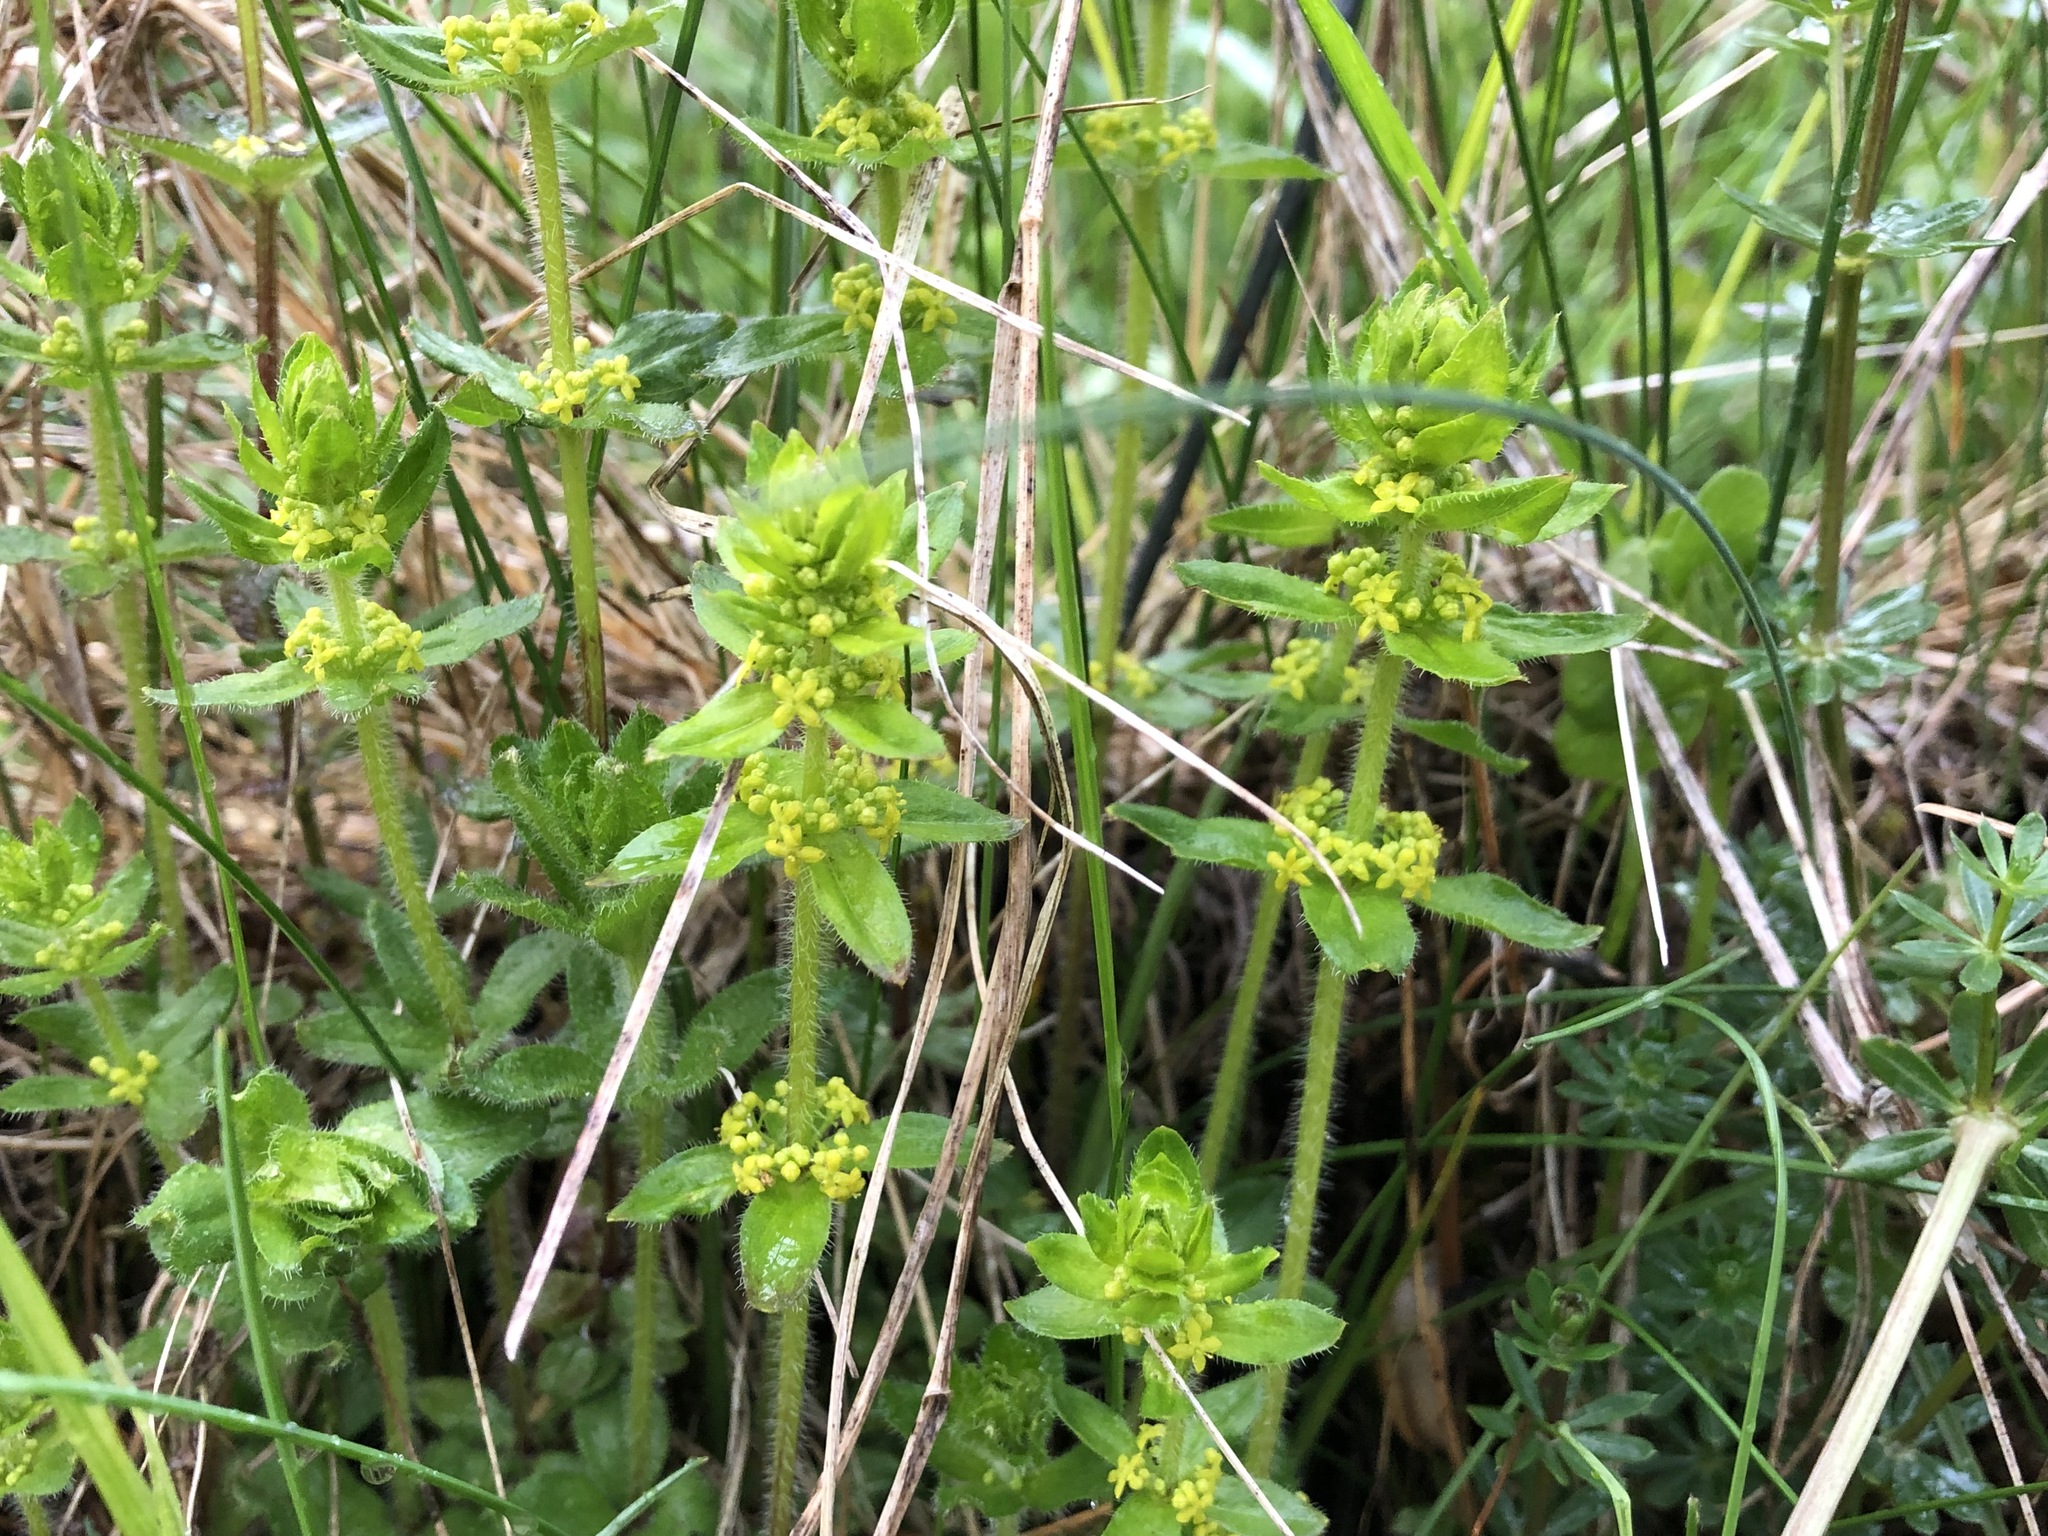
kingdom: Plantae
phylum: Tracheophyta
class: Magnoliopsida
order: Gentianales
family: Rubiaceae
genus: Cruciata
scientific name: Cruciata laevipes
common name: Crosswort
